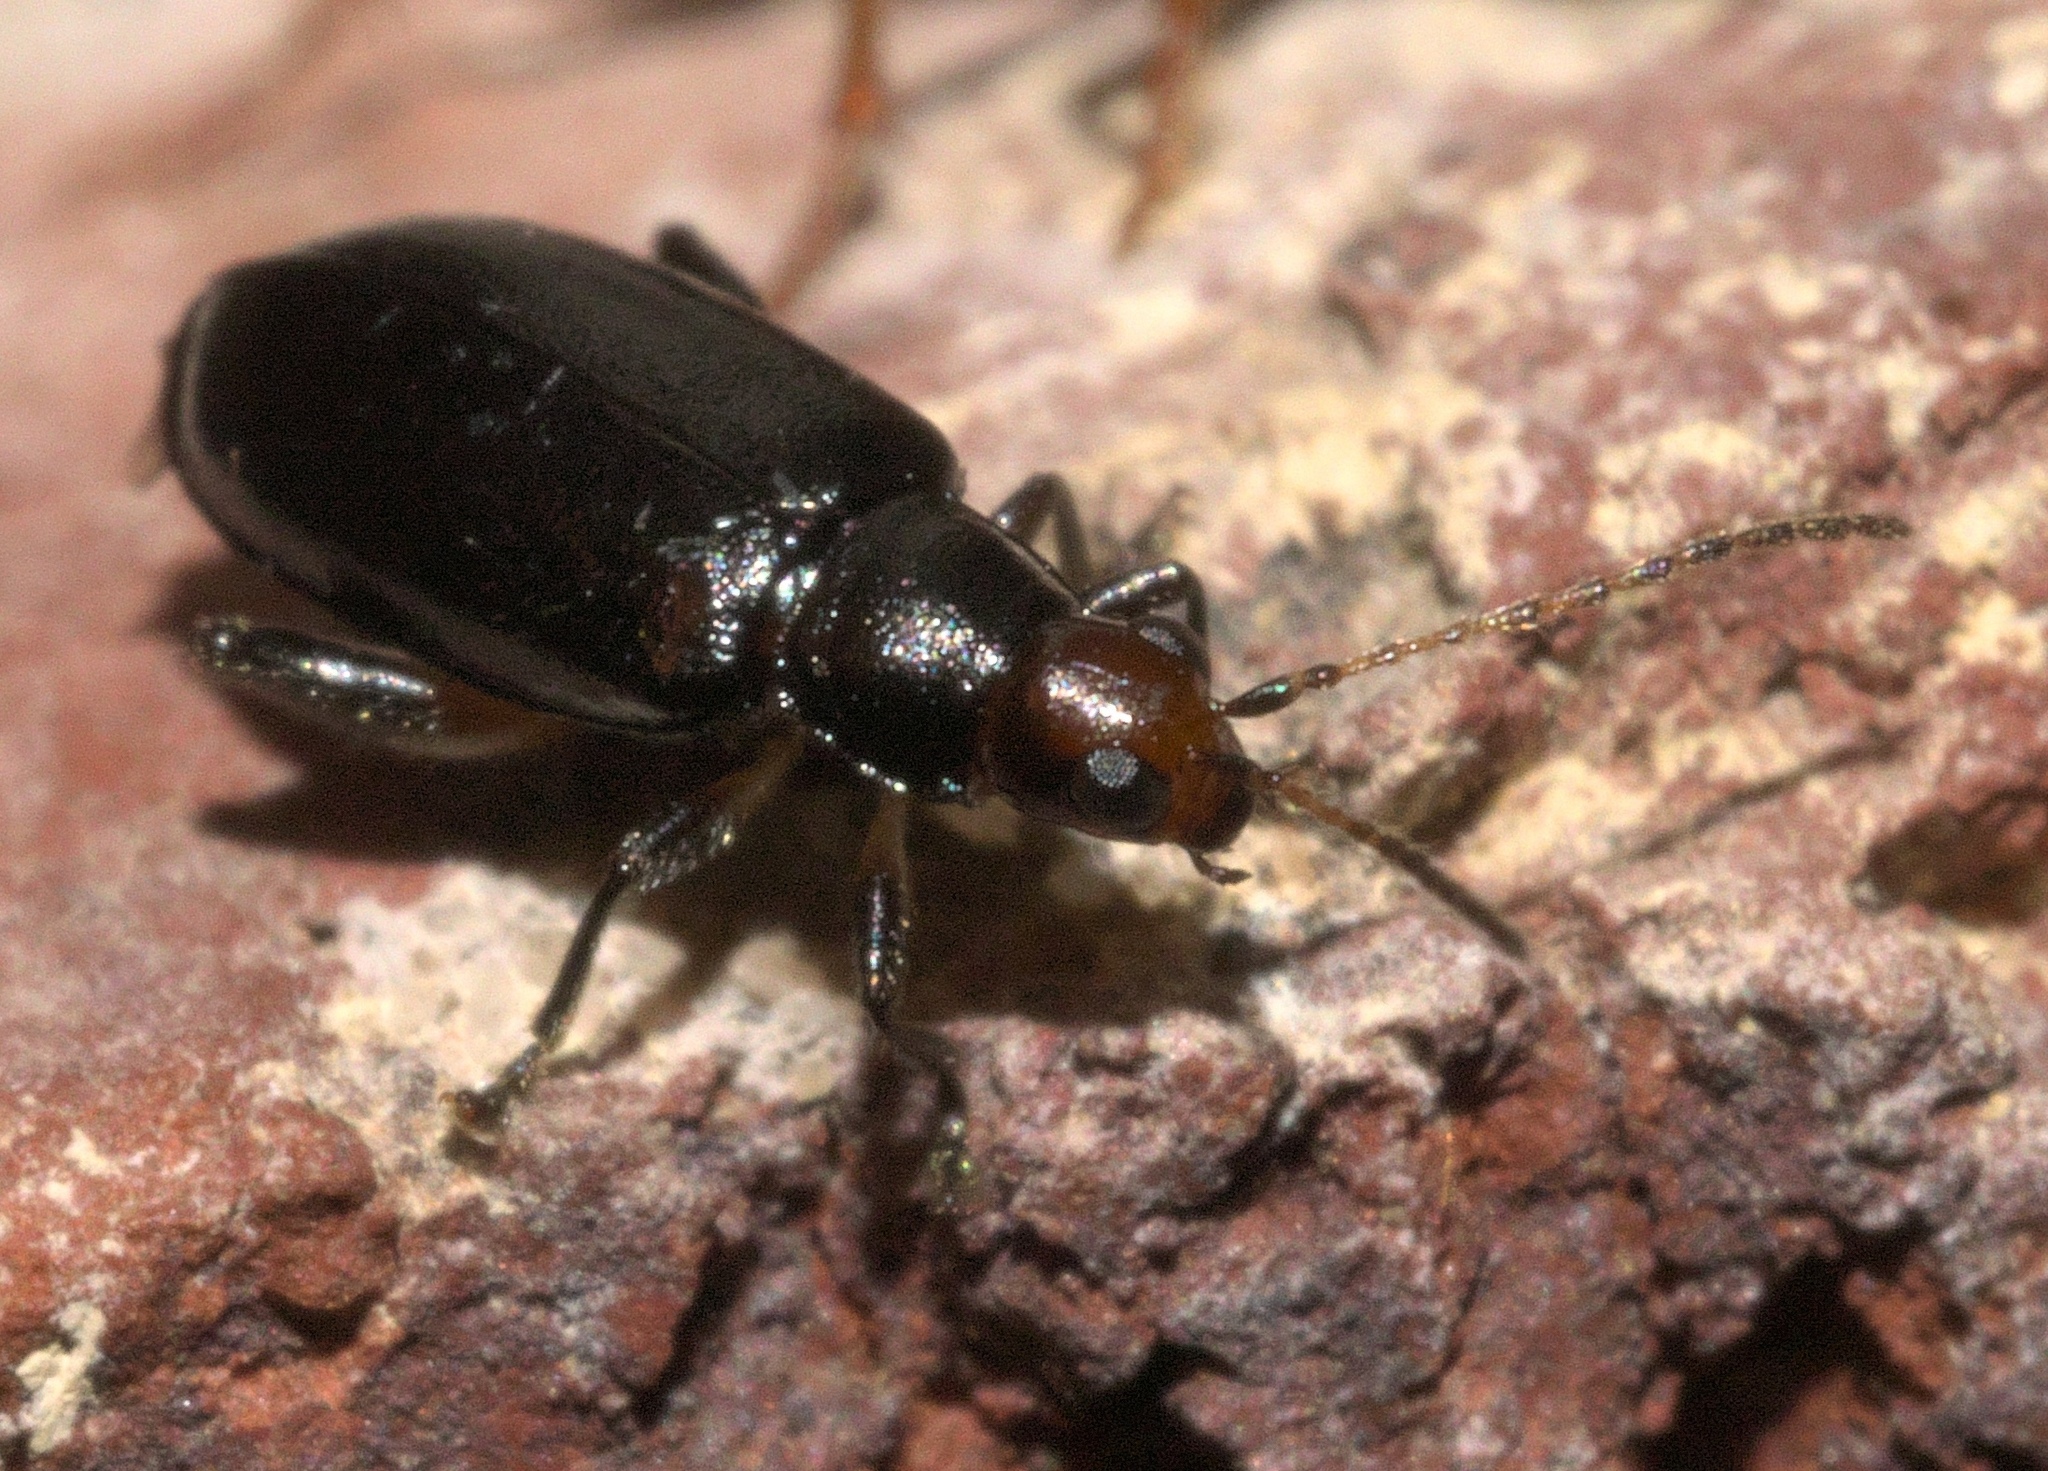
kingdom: Animalia
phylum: Arthropoda
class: Insecta
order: Coleoptera
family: Chrysomelidae
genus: Systena
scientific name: Systena frontalis
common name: Red-headed flea beetle
